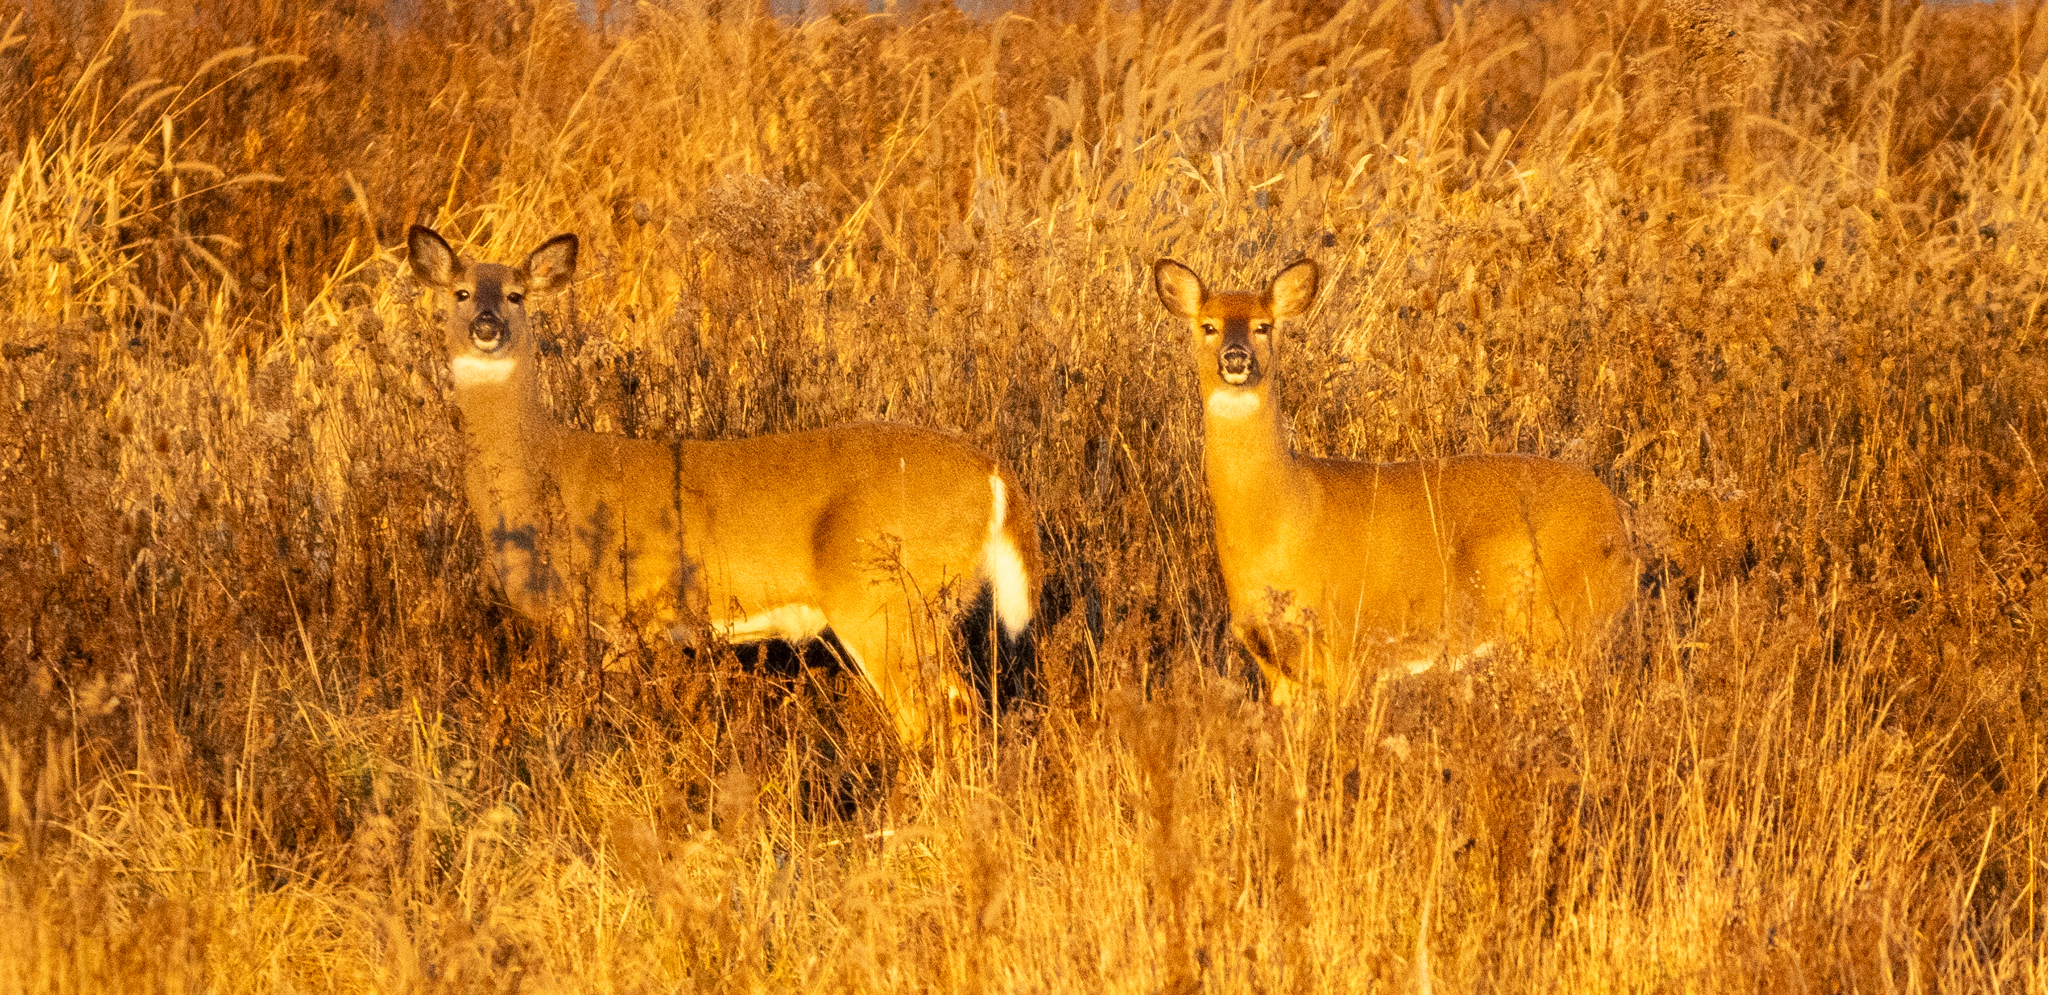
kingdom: Animalia
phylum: Chordata
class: Mammalia
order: Artiodactyla
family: Cervidae
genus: Odocoileus
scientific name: Odocoileus virginianus
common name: White-tailed deer
